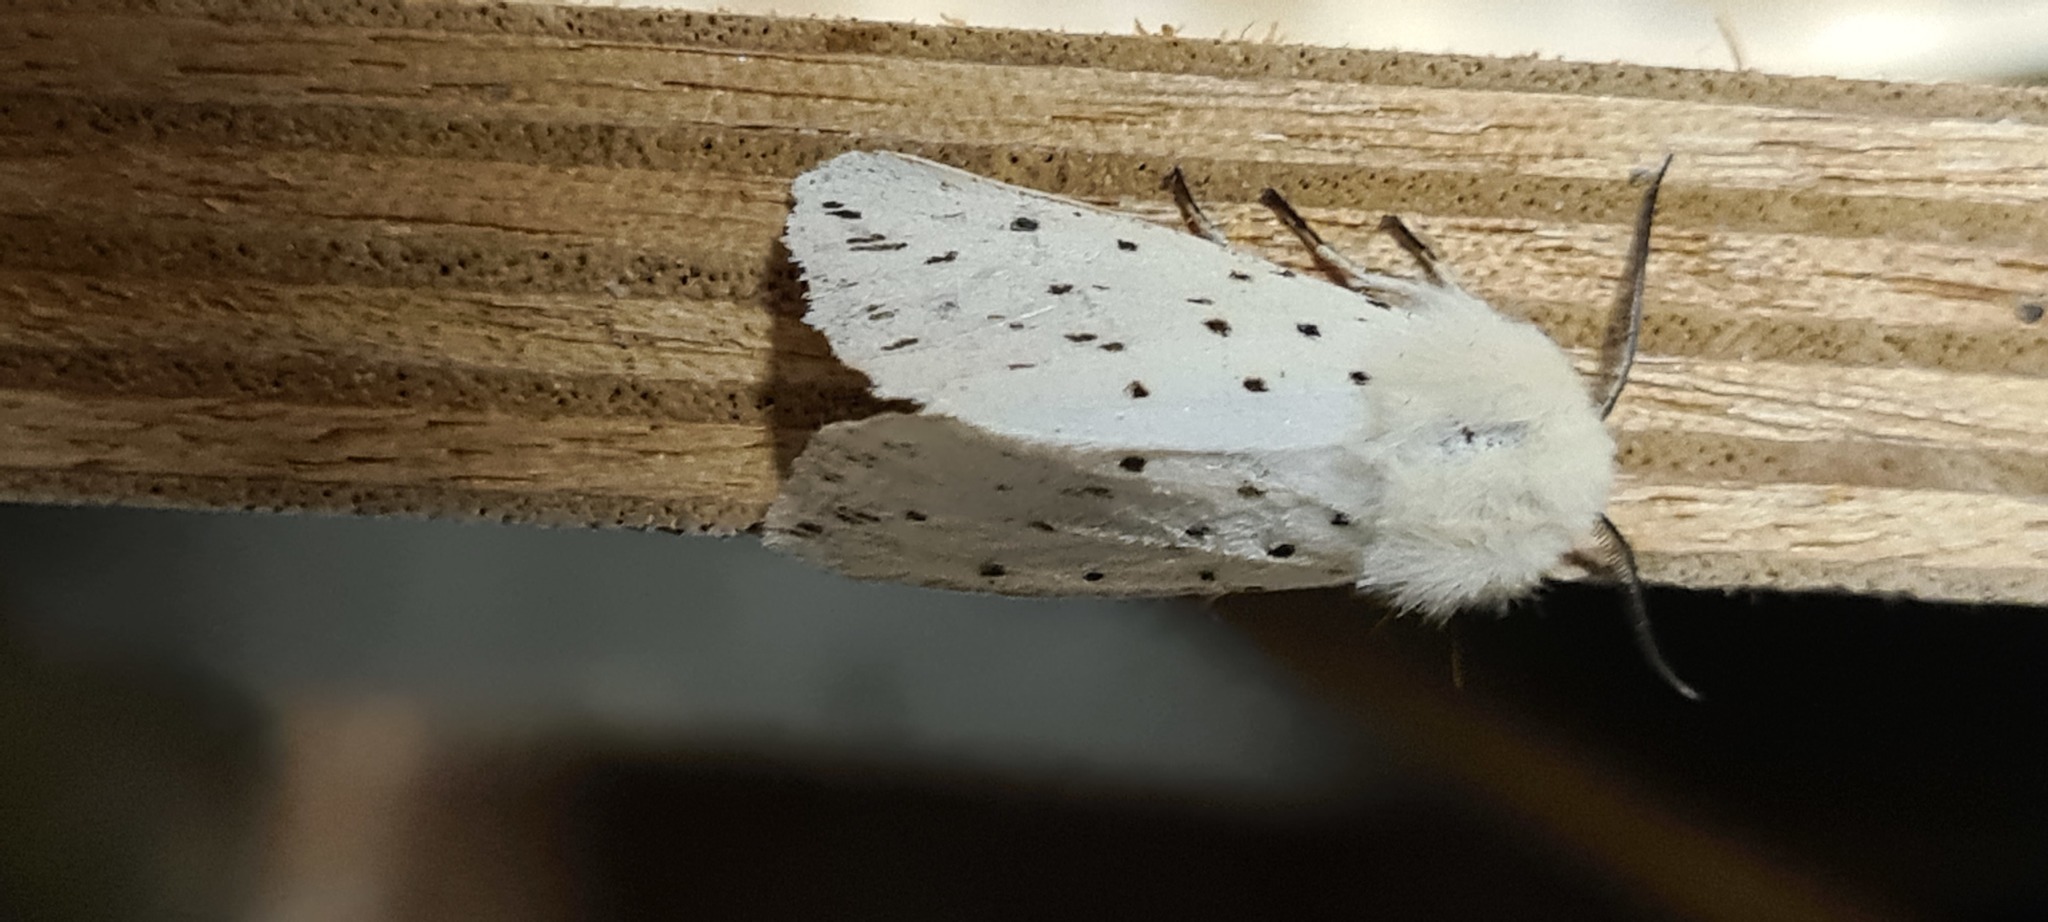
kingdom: Animalia
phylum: Arthropoda
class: Insecta
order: Lepidoptera
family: Erebidae
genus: Spilosoma
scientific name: Spilosoma lubricipeda
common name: White ermine
